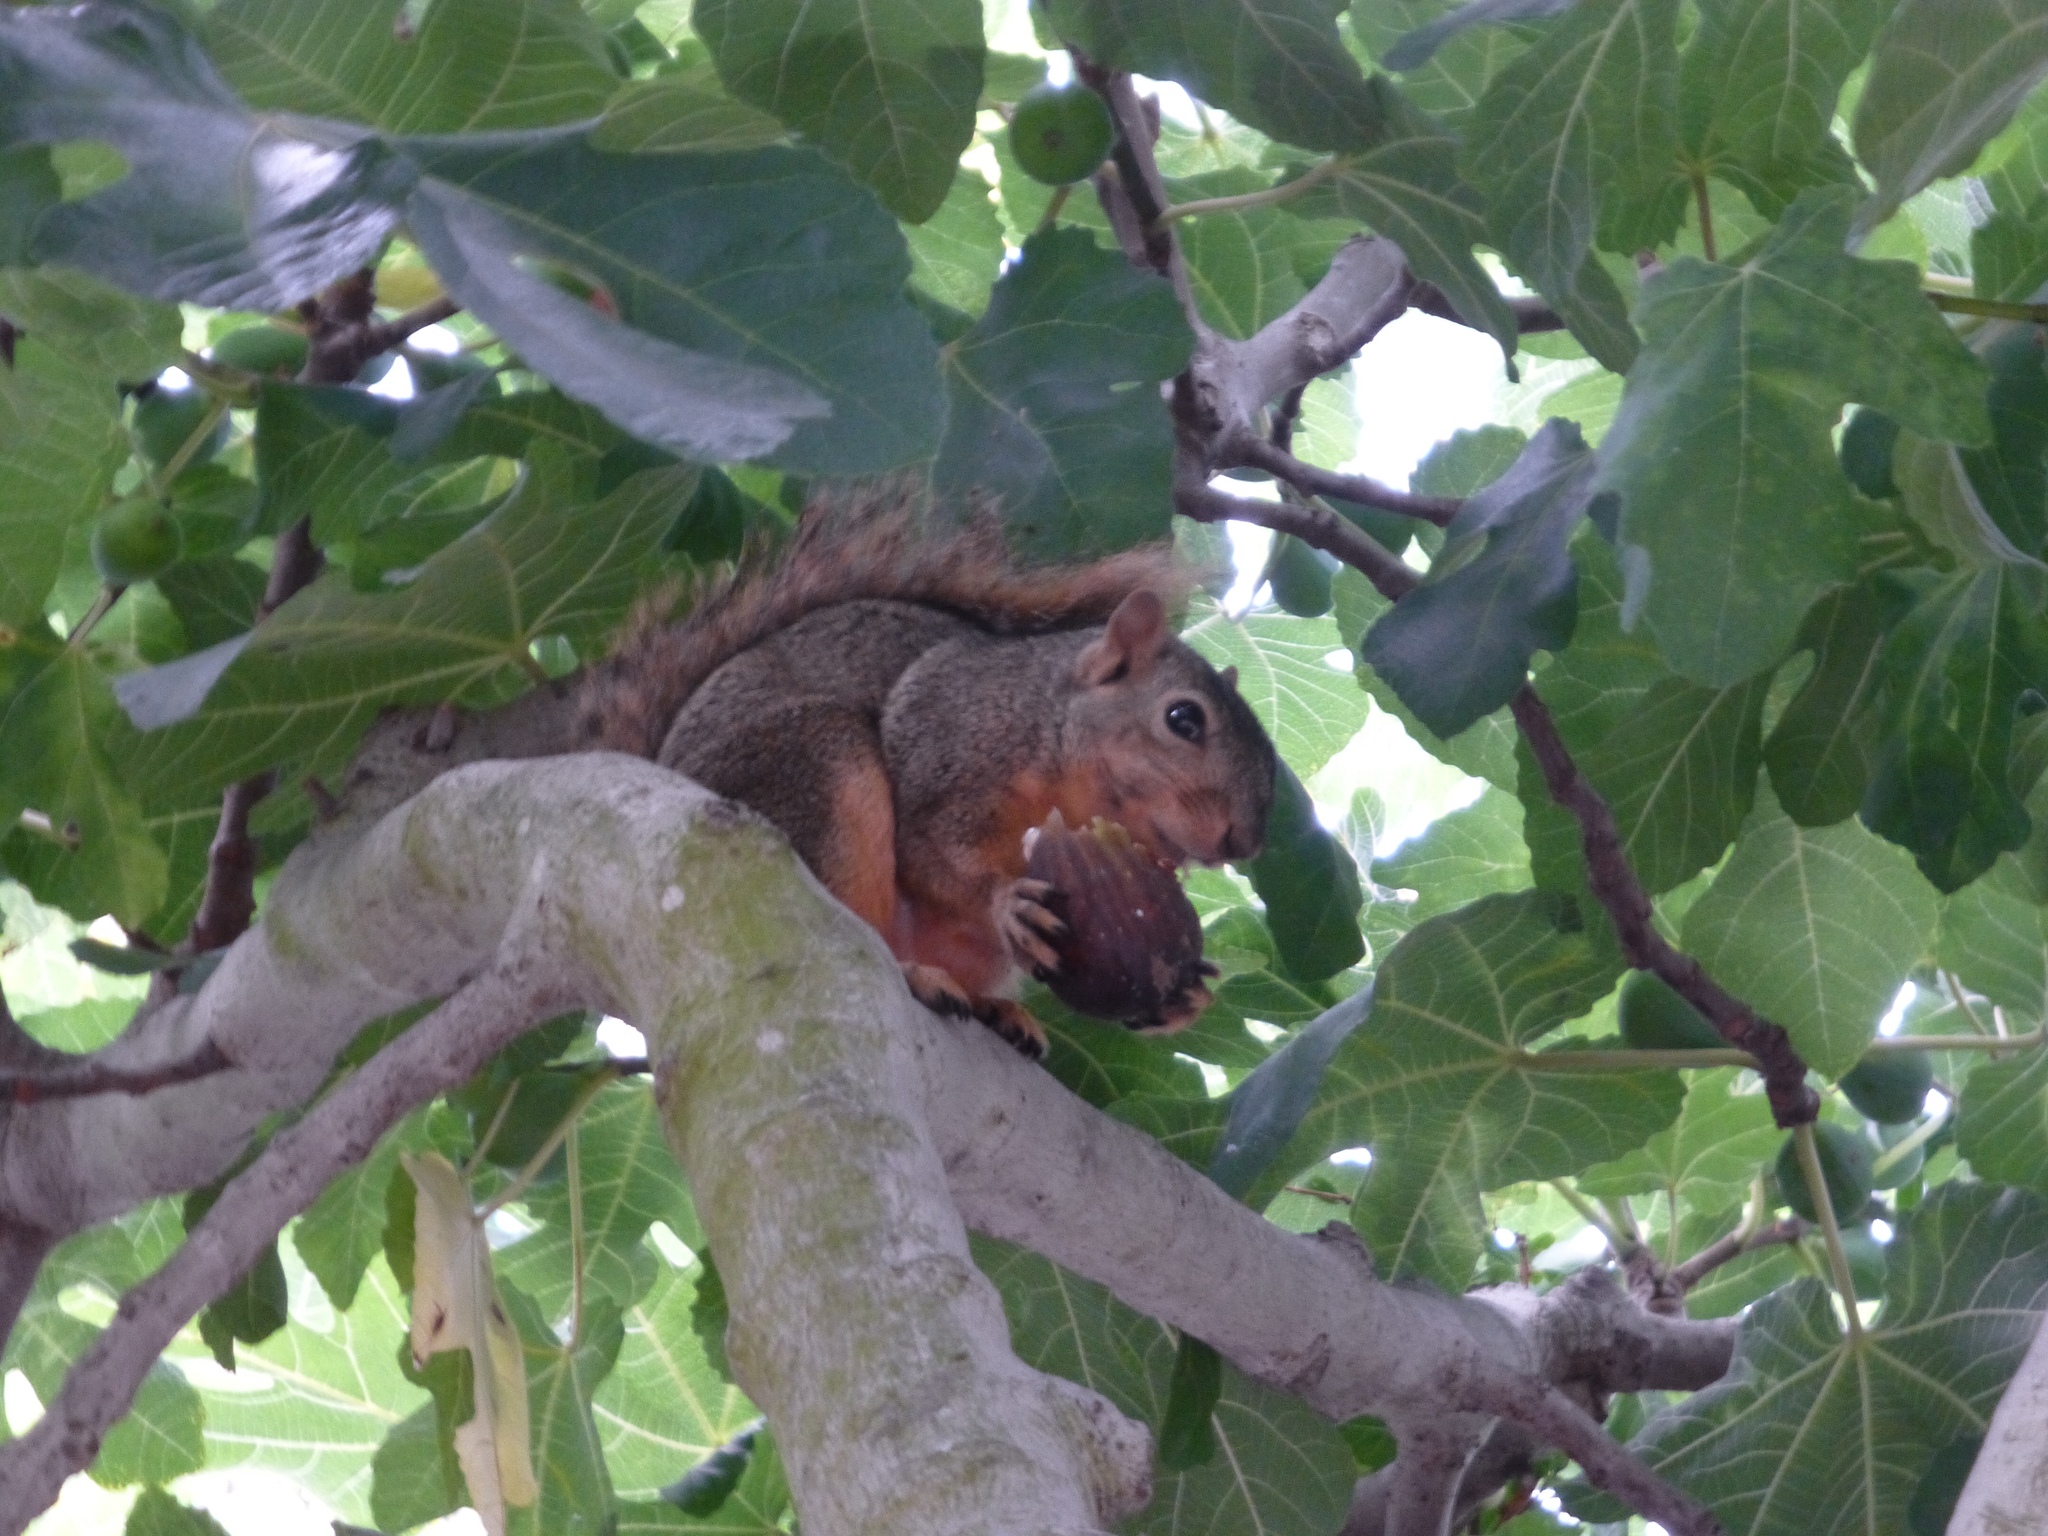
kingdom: Animalia
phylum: Chordata
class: Mammalia
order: Rodentia
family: Sciuridae
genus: Sciurus
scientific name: Sciurus niger
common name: Fox squirrel
